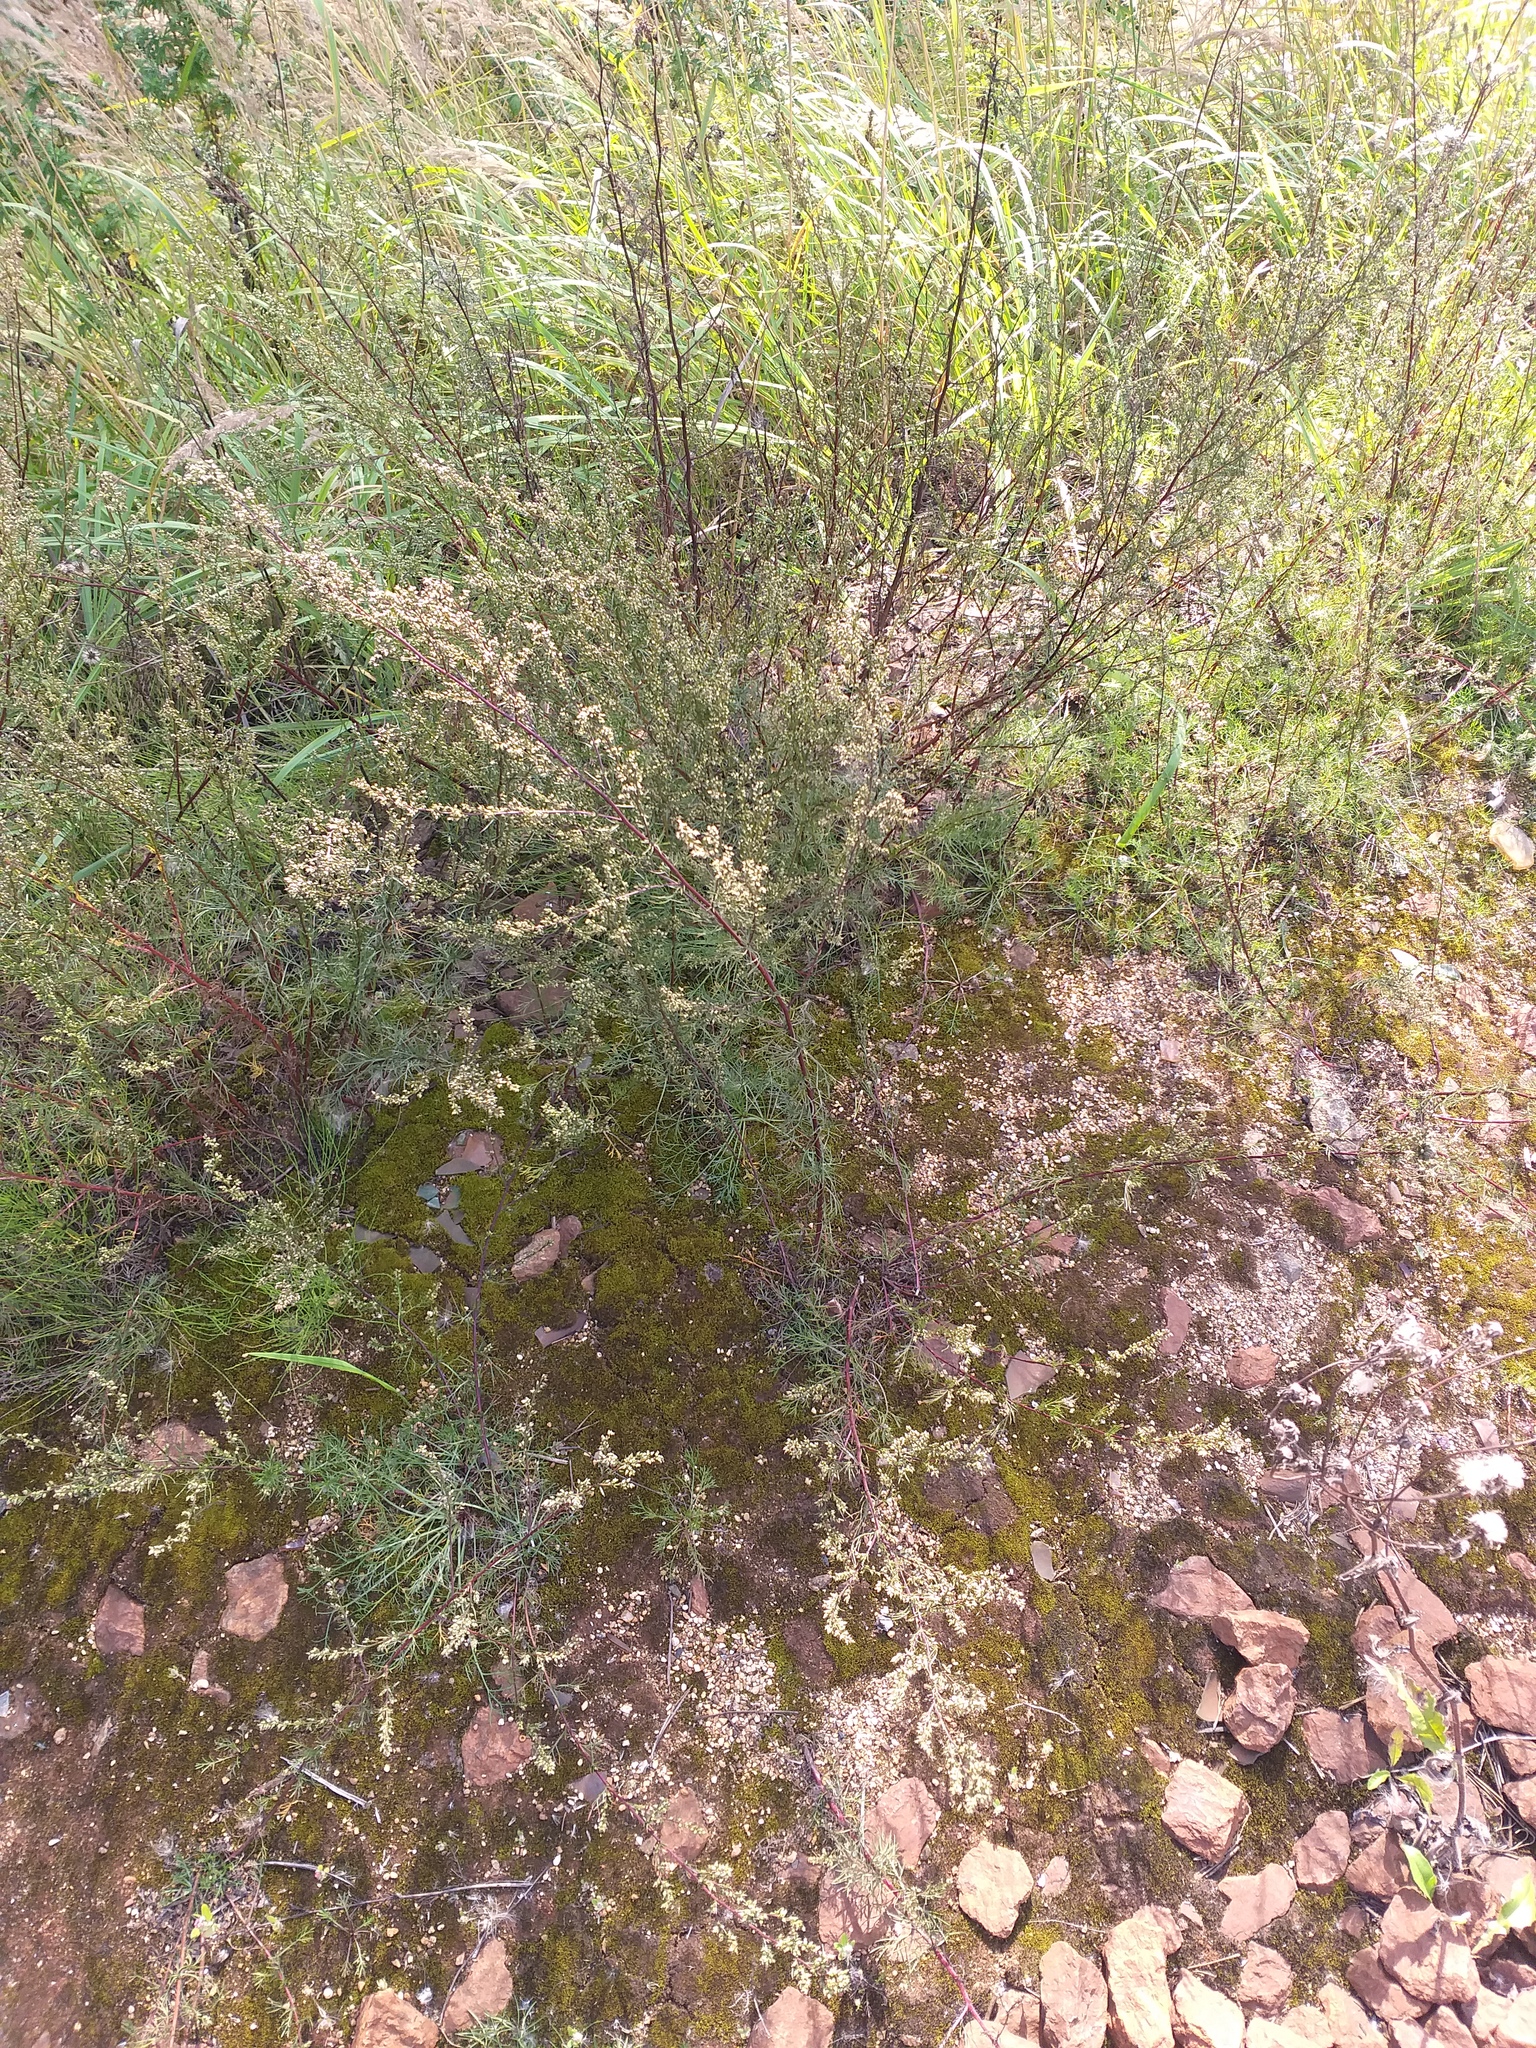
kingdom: Plantae
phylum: Tracheophyta
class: Magnoliopsida
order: Asterales
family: Asteraceae
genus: Artemisia
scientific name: Artemisia campestris
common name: Field wormwood
